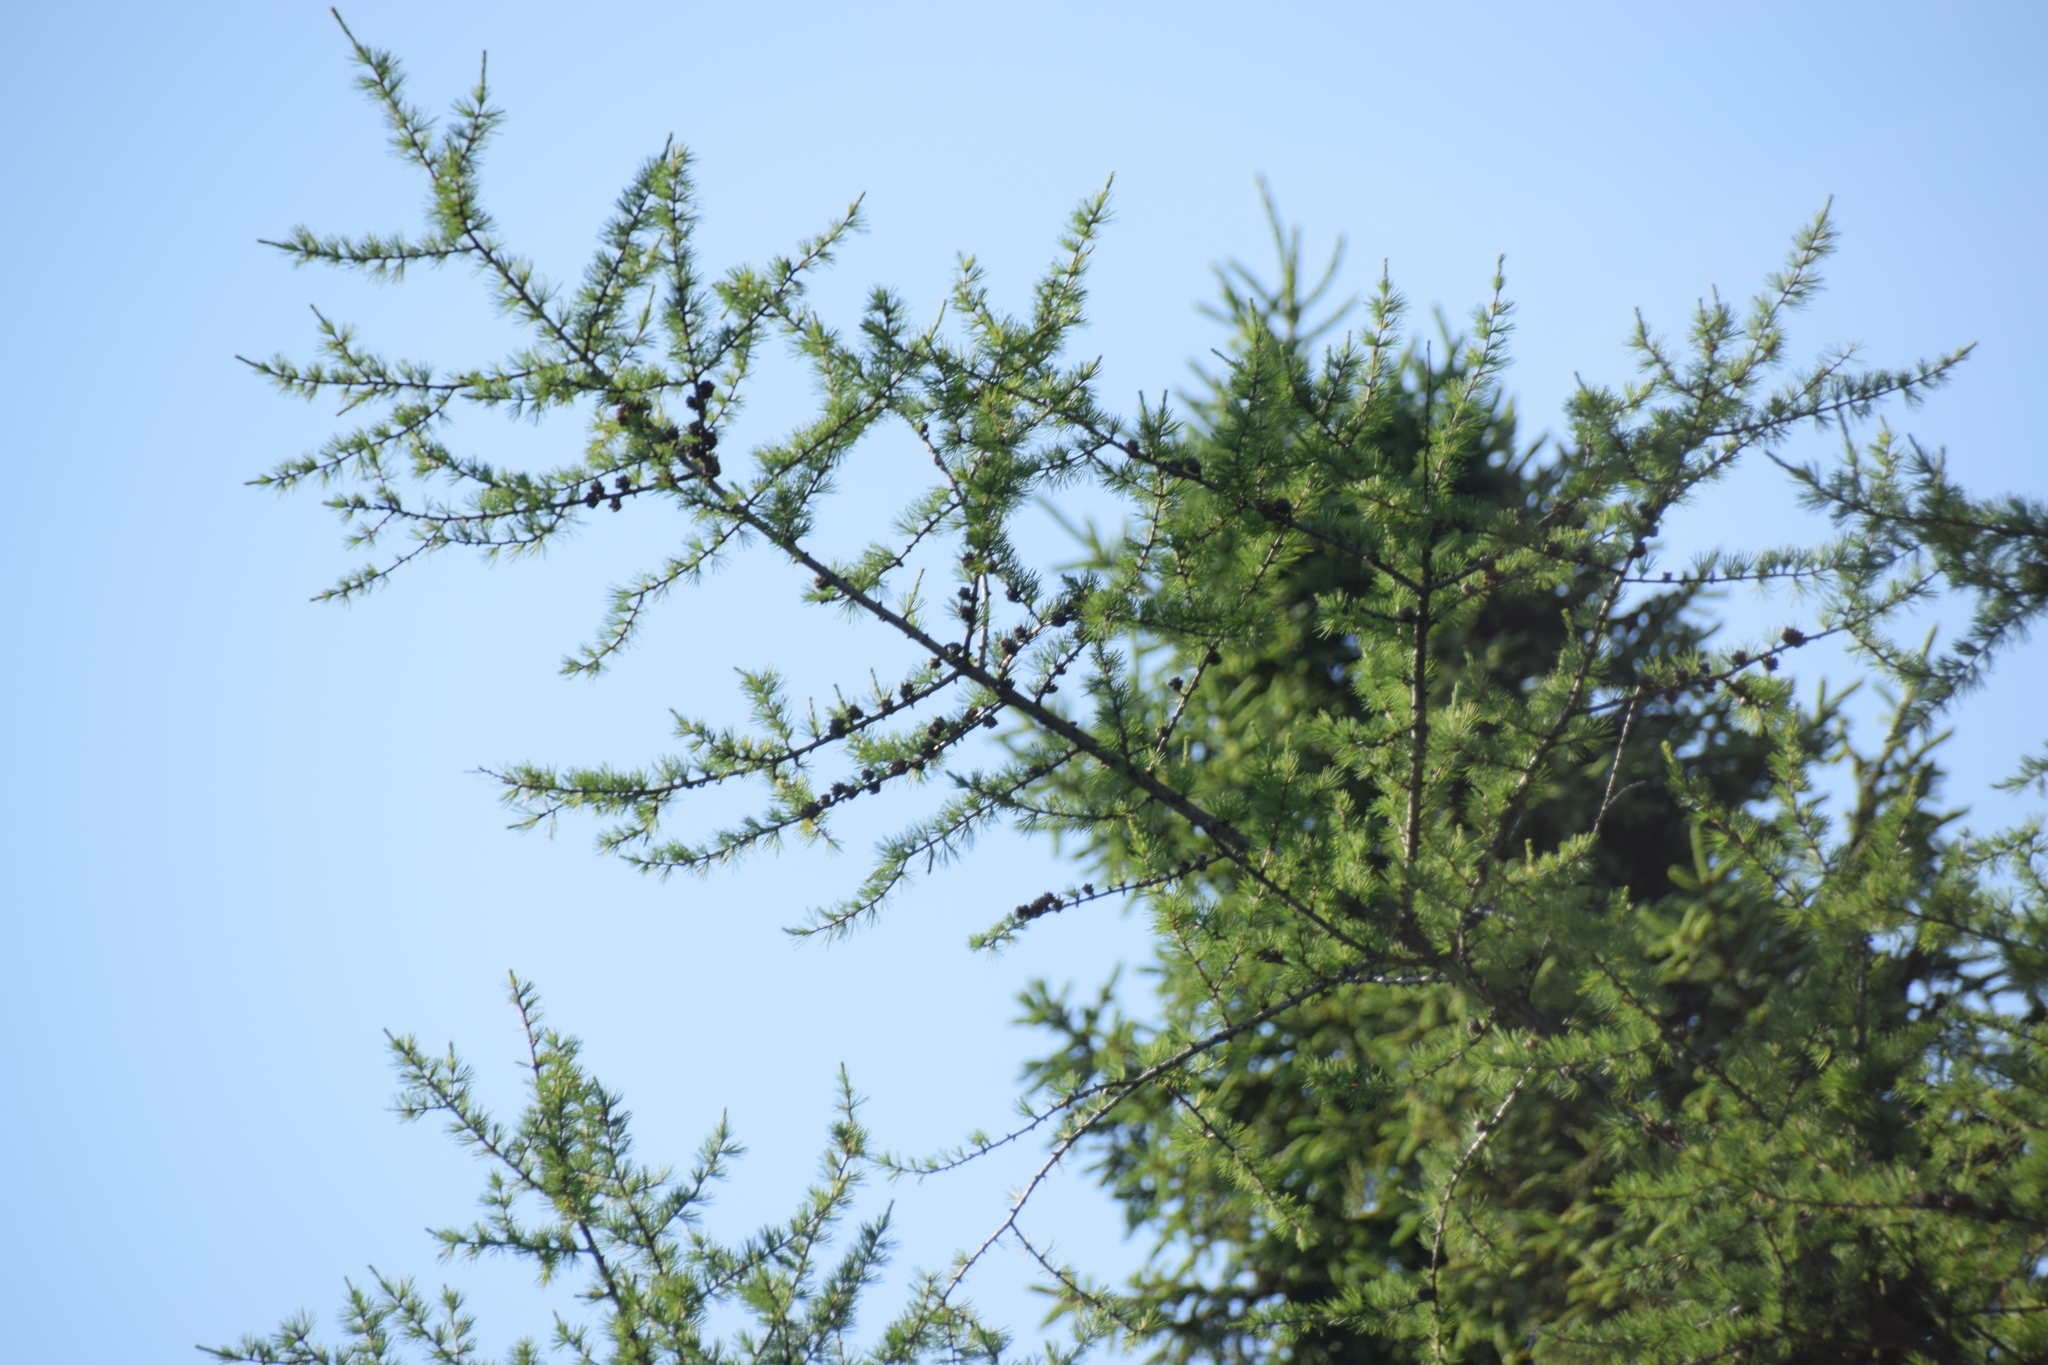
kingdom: Plantae
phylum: Tracheophyta
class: Pinopsida
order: Pinales
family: Pinaceae
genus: Larix
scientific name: Larix laricina
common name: American larch
